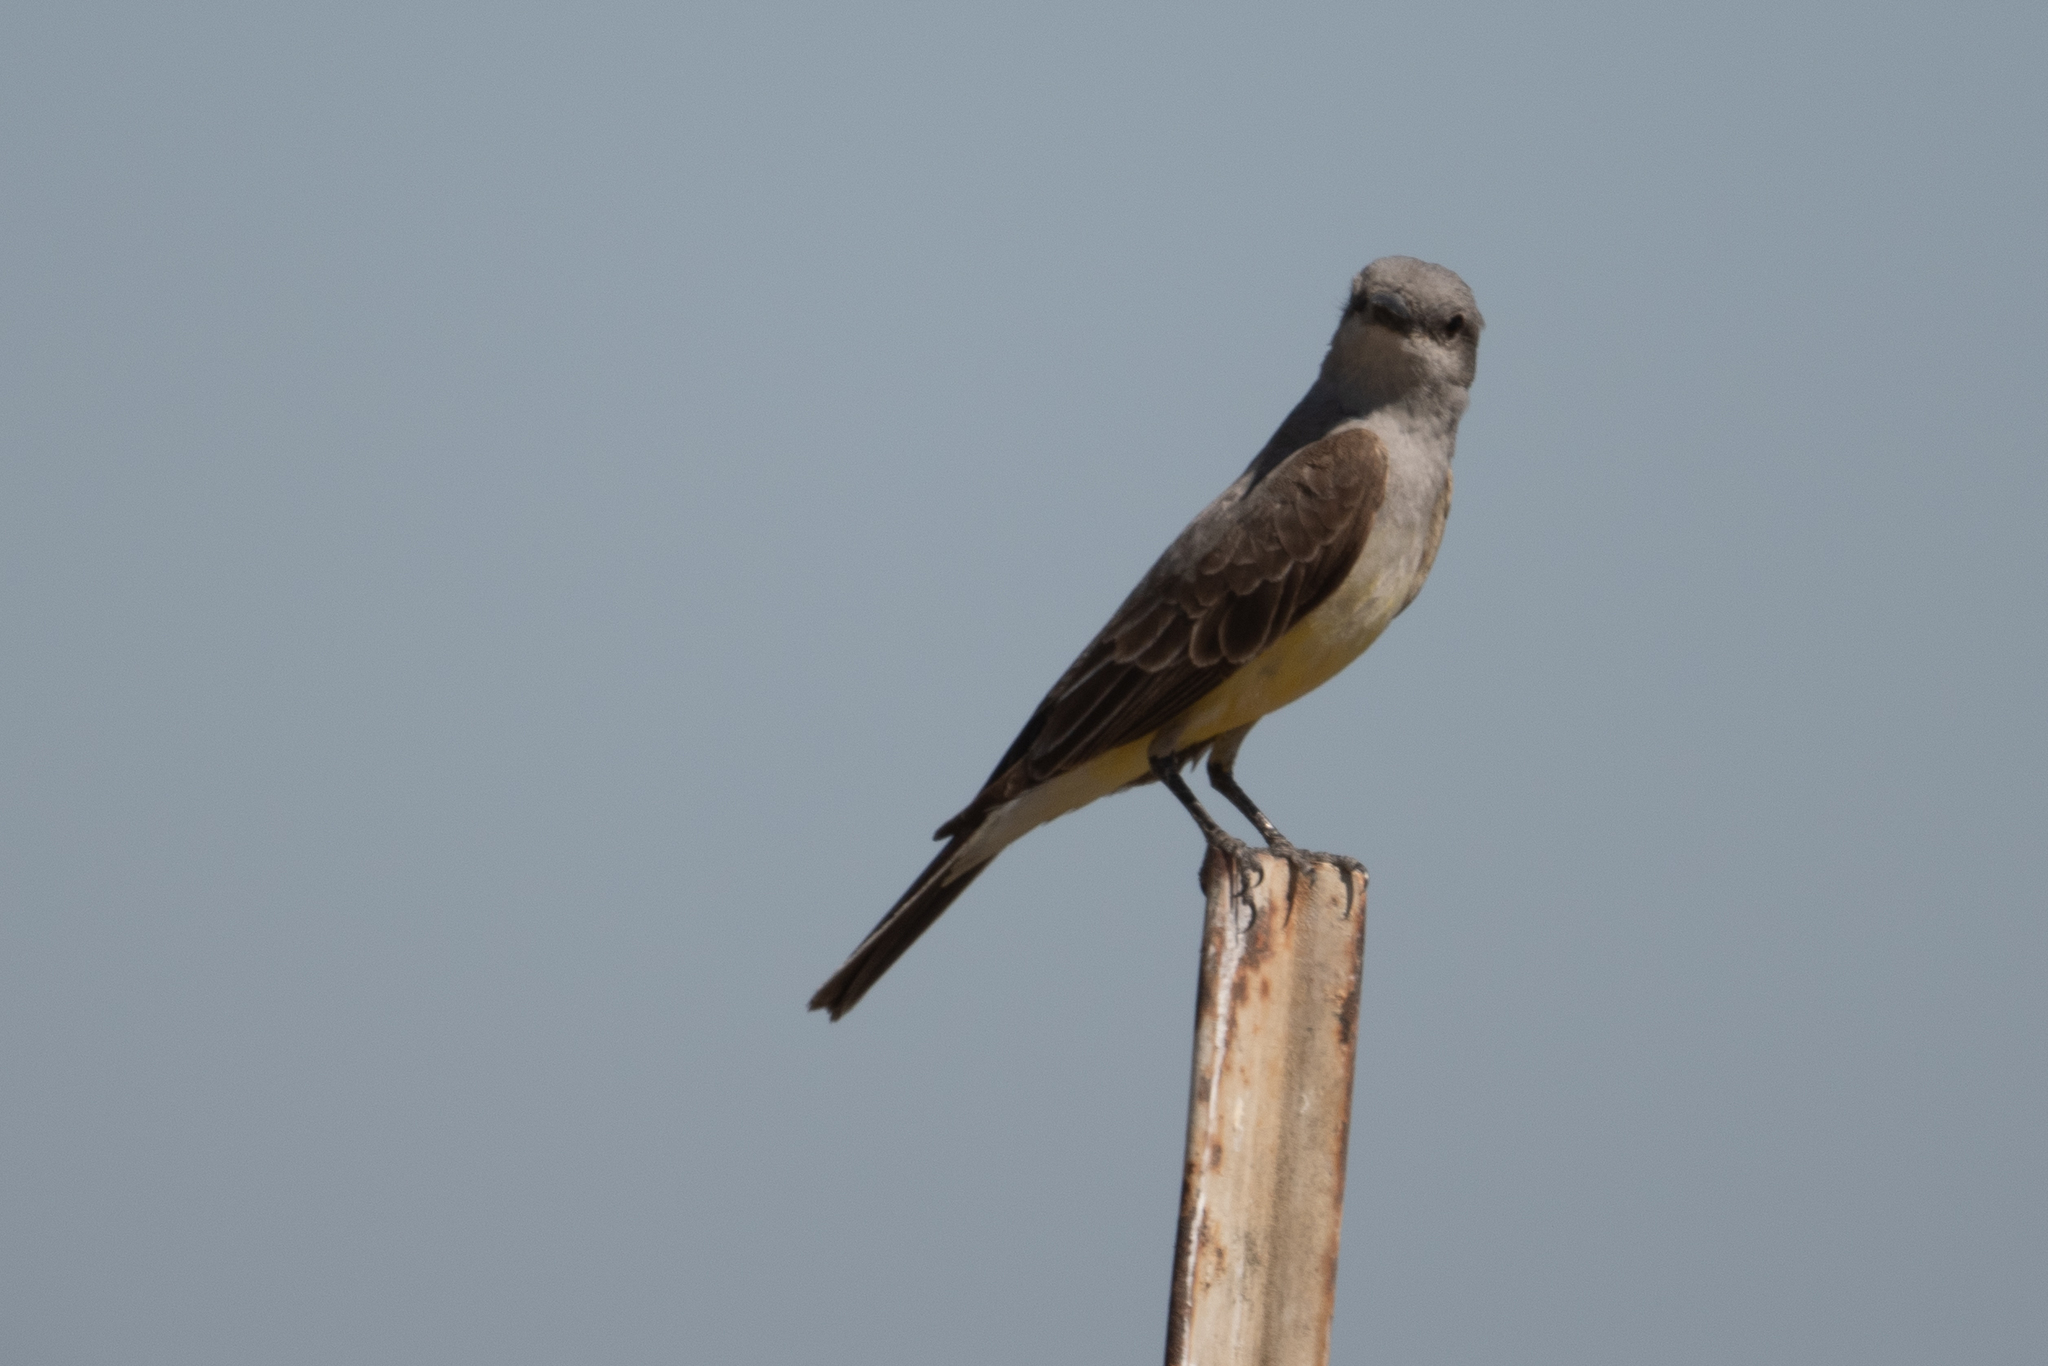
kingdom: Animalia
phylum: Chordata
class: Aves
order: Passeriformes
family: Tyrannidae
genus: Tyrannus
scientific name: Tyrannus verticalis
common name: Western kingbird
